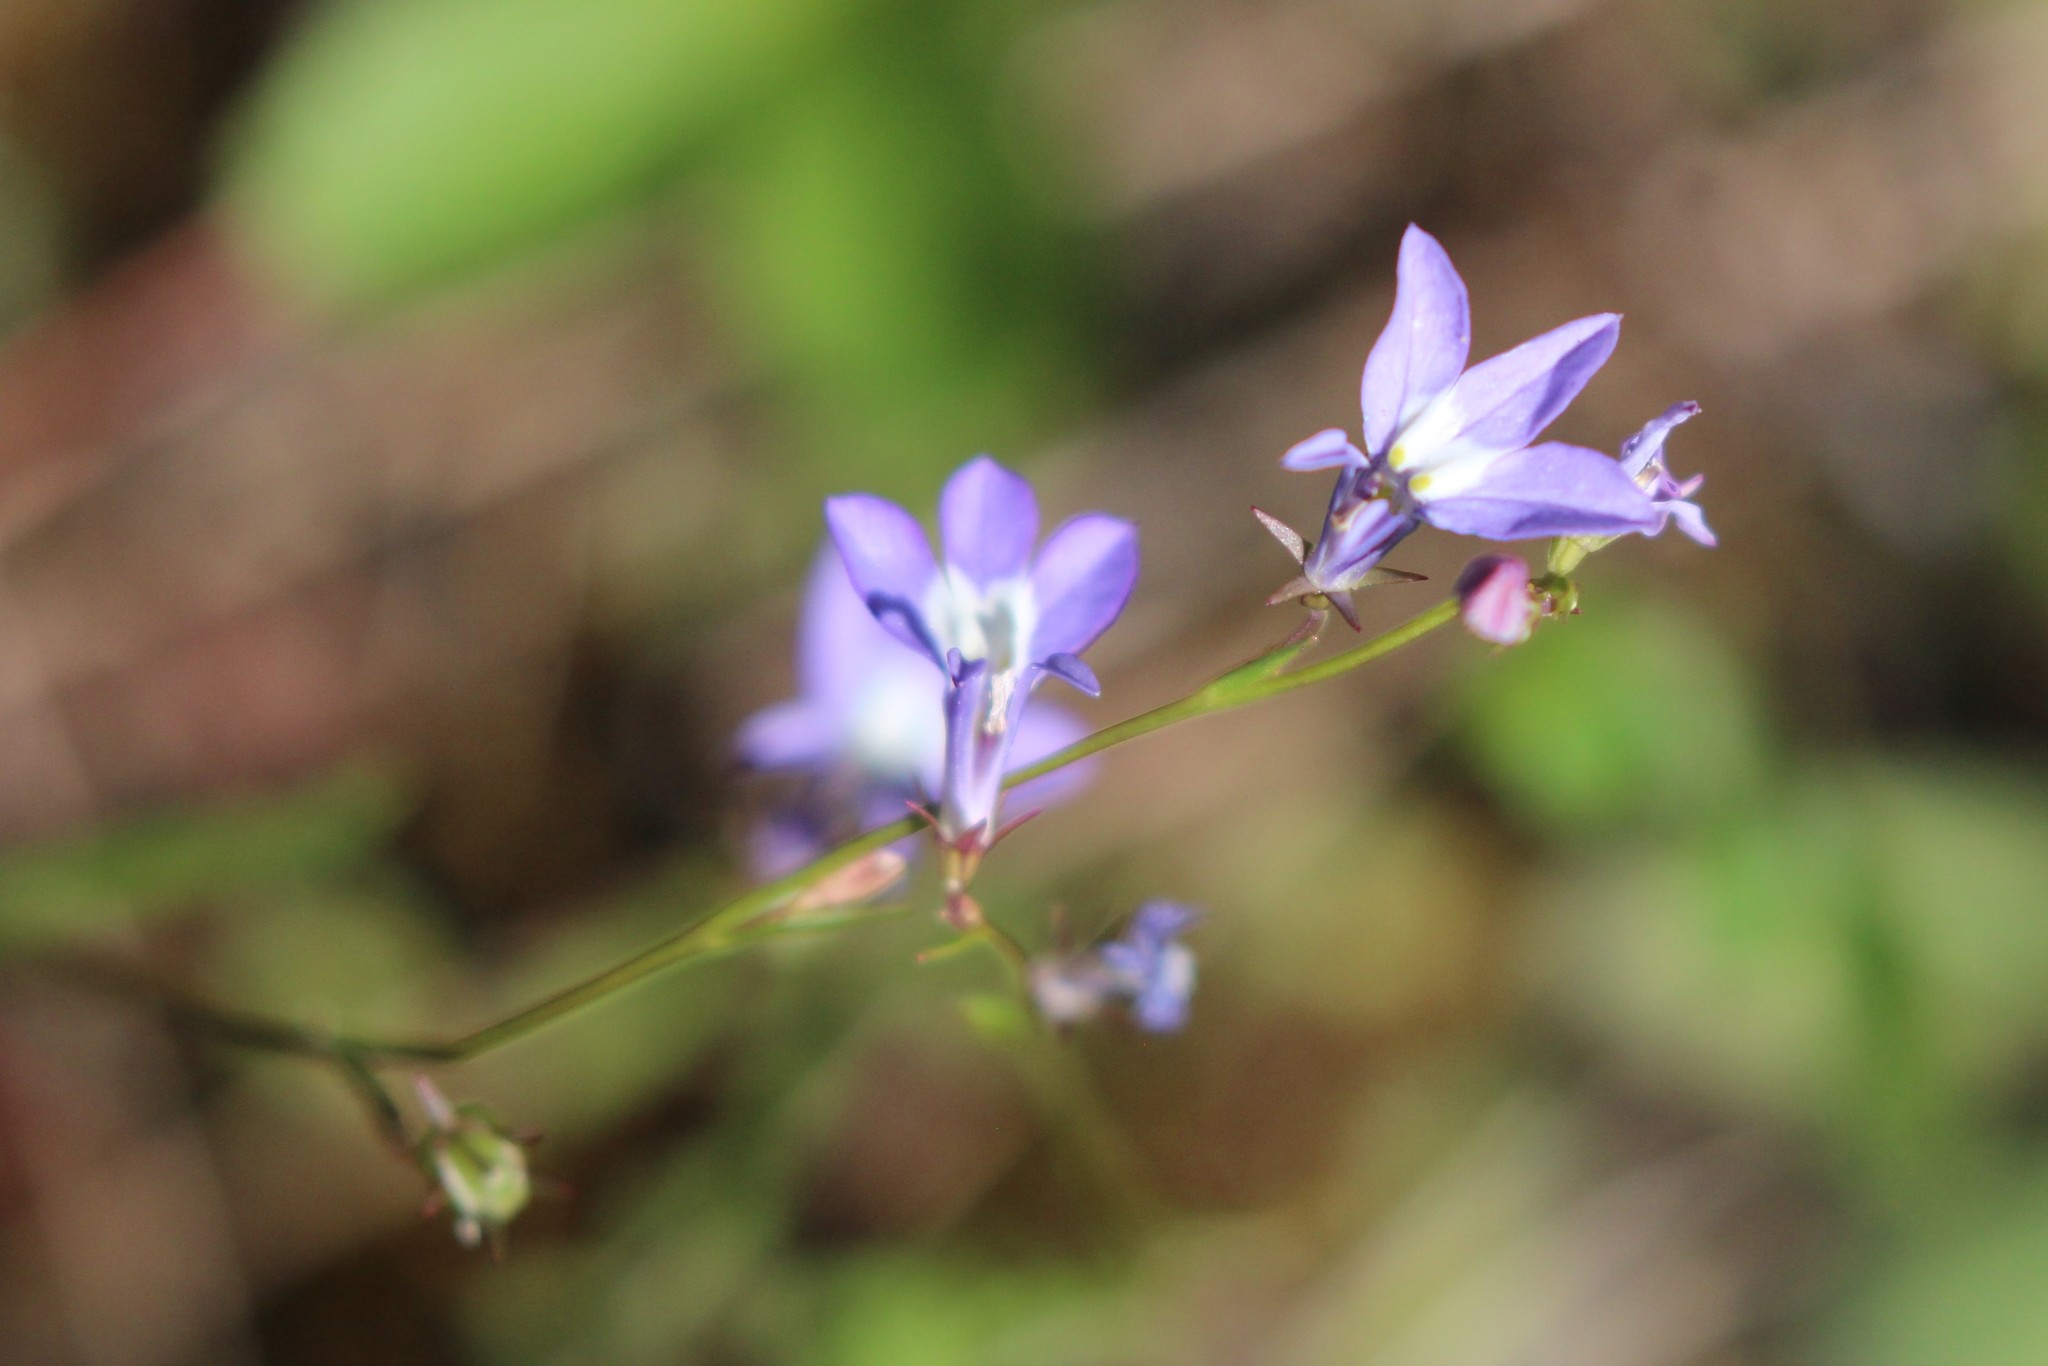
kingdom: Plantae
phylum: Tracheophyta
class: Magnoliopsida
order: Asterales
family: Campanulaceae
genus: Lobelia
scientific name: Lobelia kalmii
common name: Kalm's lobelia
